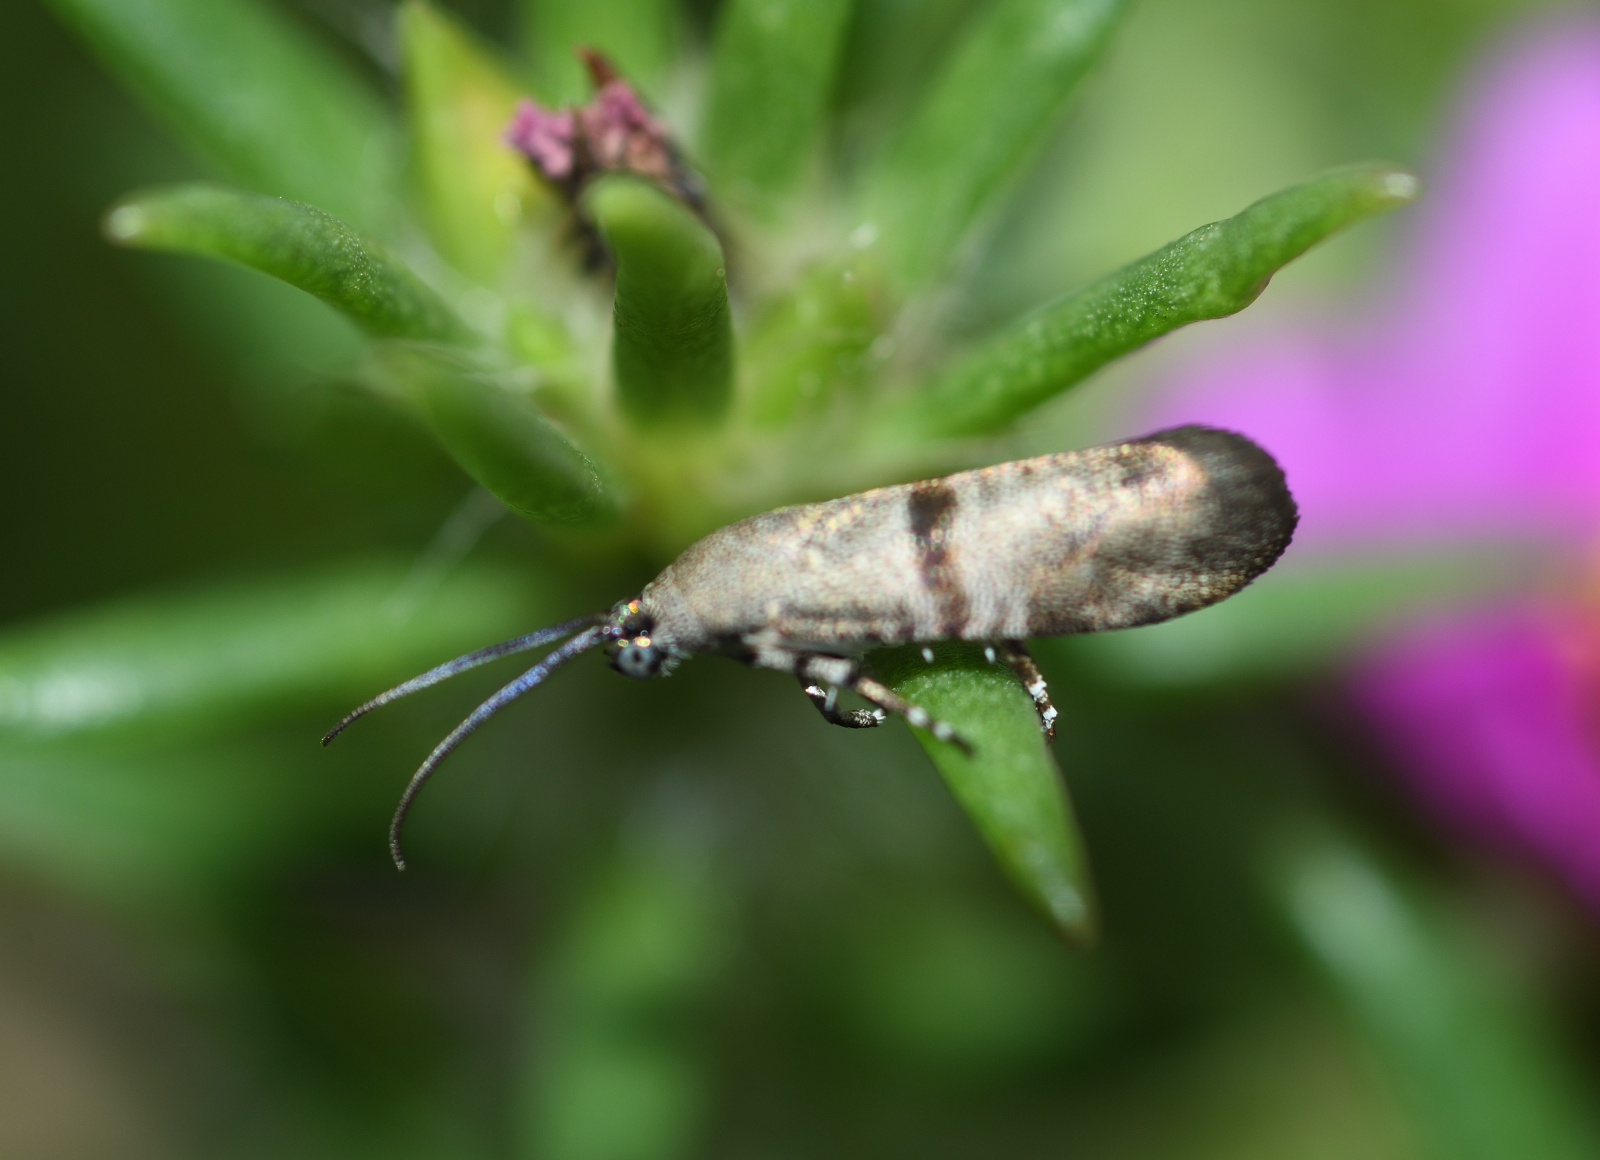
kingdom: Animalia
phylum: Arthropoda
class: Insecta
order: Lepidoptera
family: Brachodidae
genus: Phycodes
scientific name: Phycodes minor
